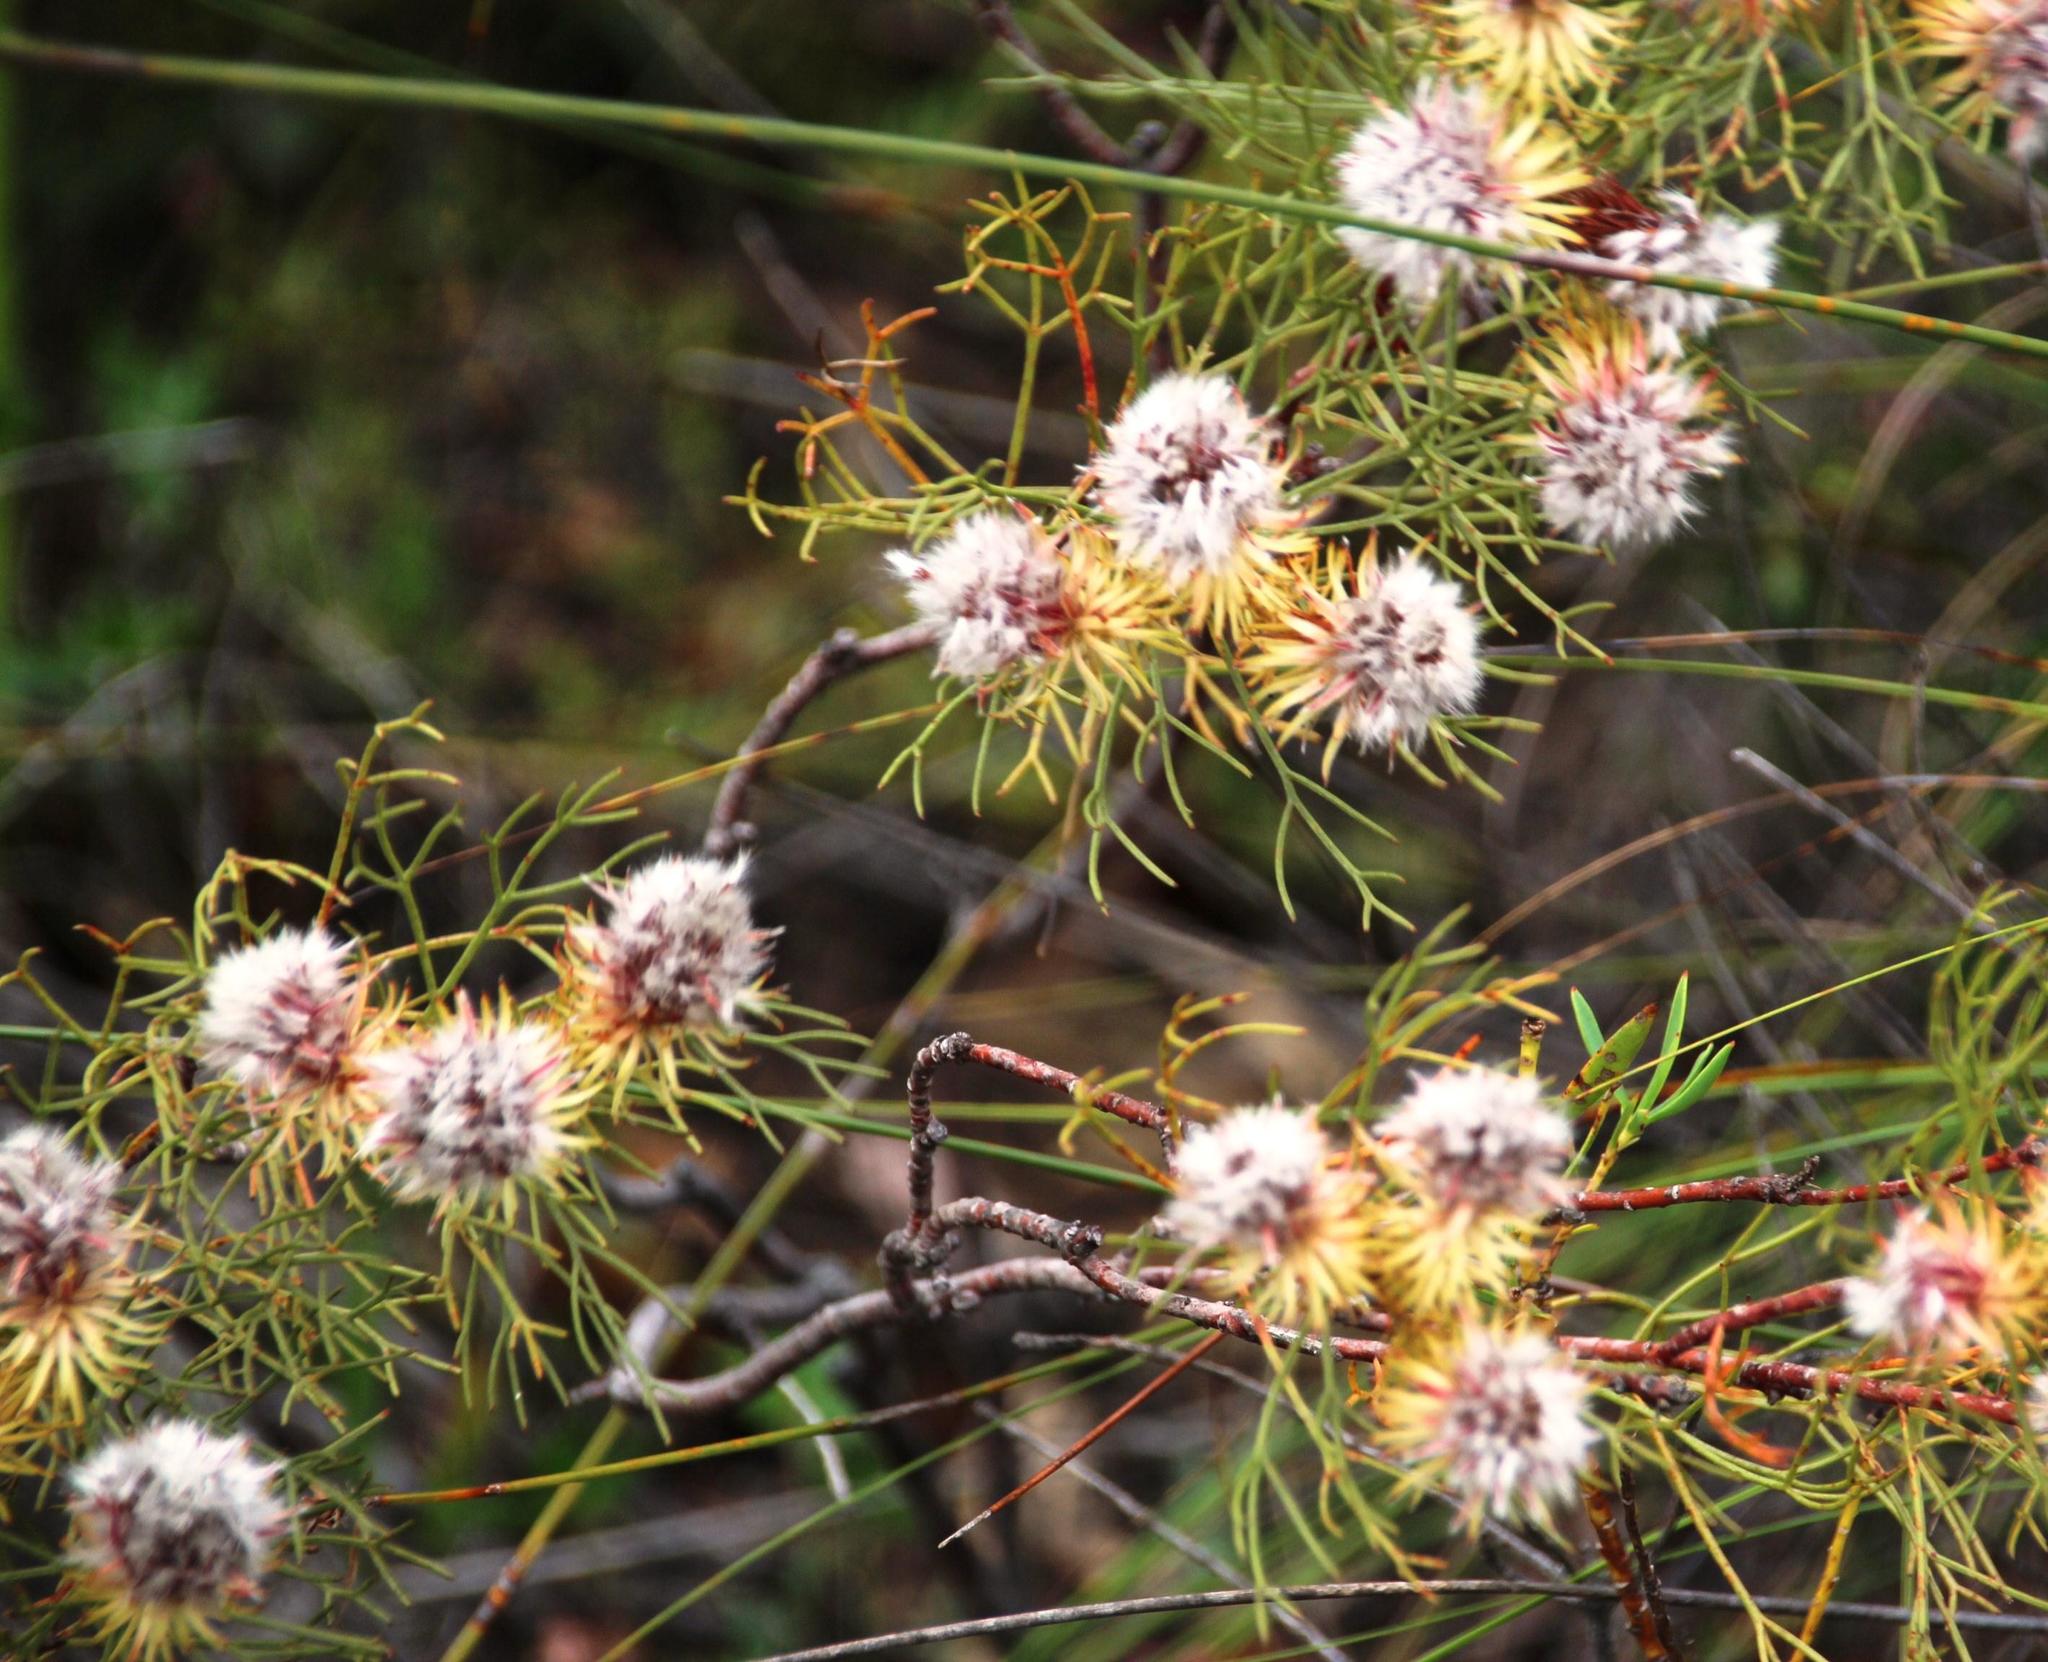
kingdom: Plantae
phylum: Tracheophyta
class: Magnoliopsida
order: Proteales
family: Proteaceae
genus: Serruria
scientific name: Serruria phylicoides
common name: Bearded spiderhead
